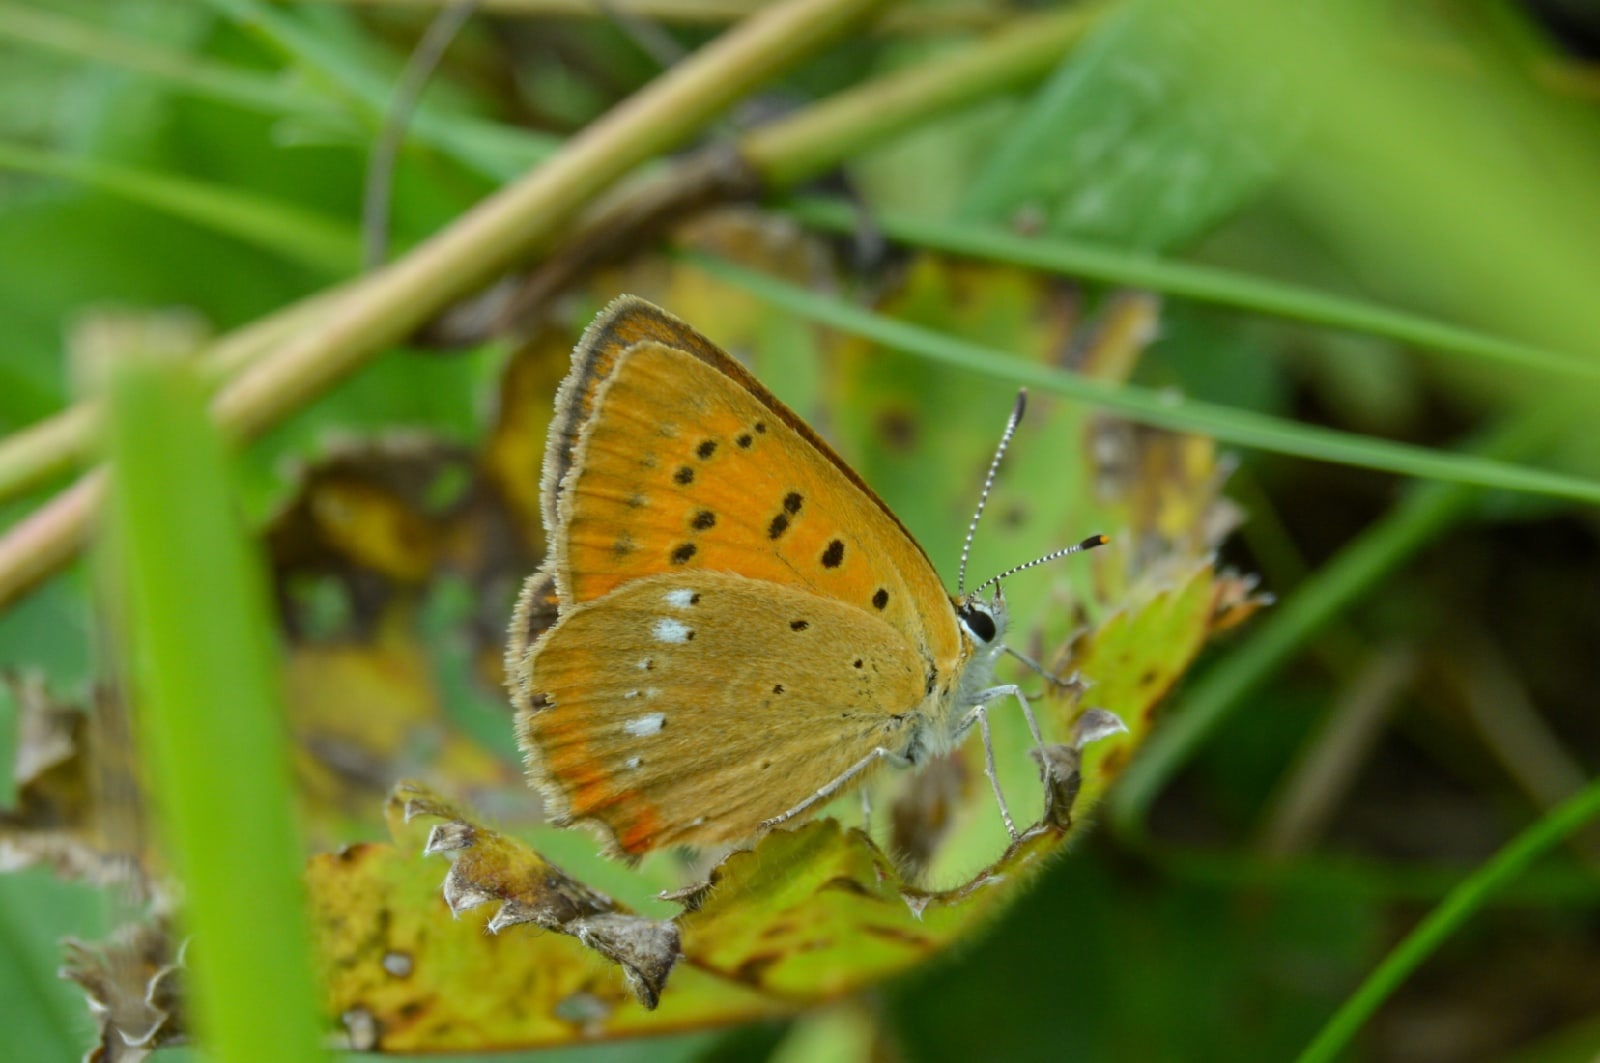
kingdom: Animalia
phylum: Arthropoda
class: Insecta
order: Lepidoptera
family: Lycaenidae
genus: Lycaena
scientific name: Lycaena virgaureae
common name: Scarce copper
